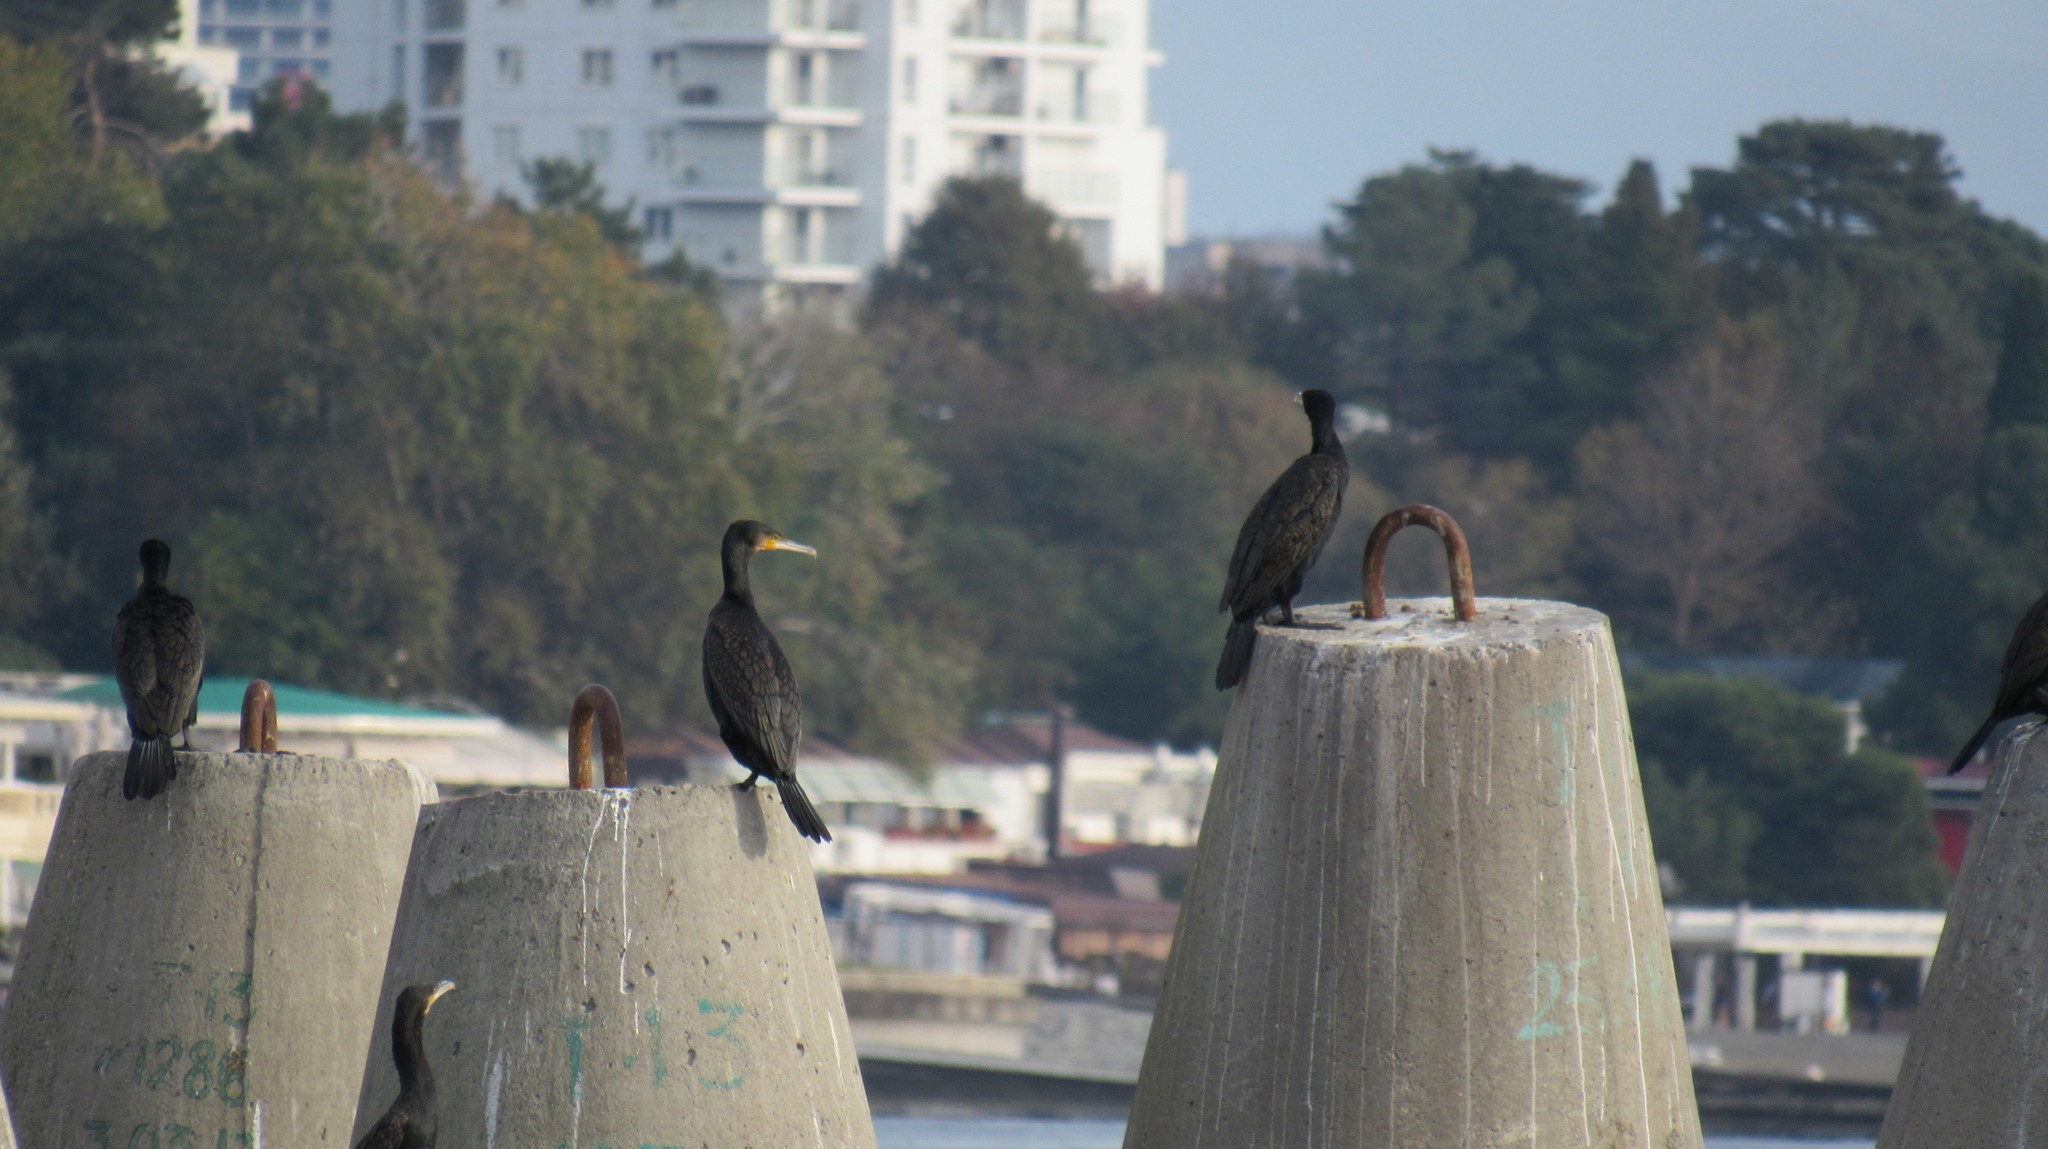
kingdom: Animalia
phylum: Chordata
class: Aves
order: Suliformes
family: Phalacrocoracidae
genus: Phalacrocorax
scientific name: Phalacrocorax carbo
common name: Great cormorant
